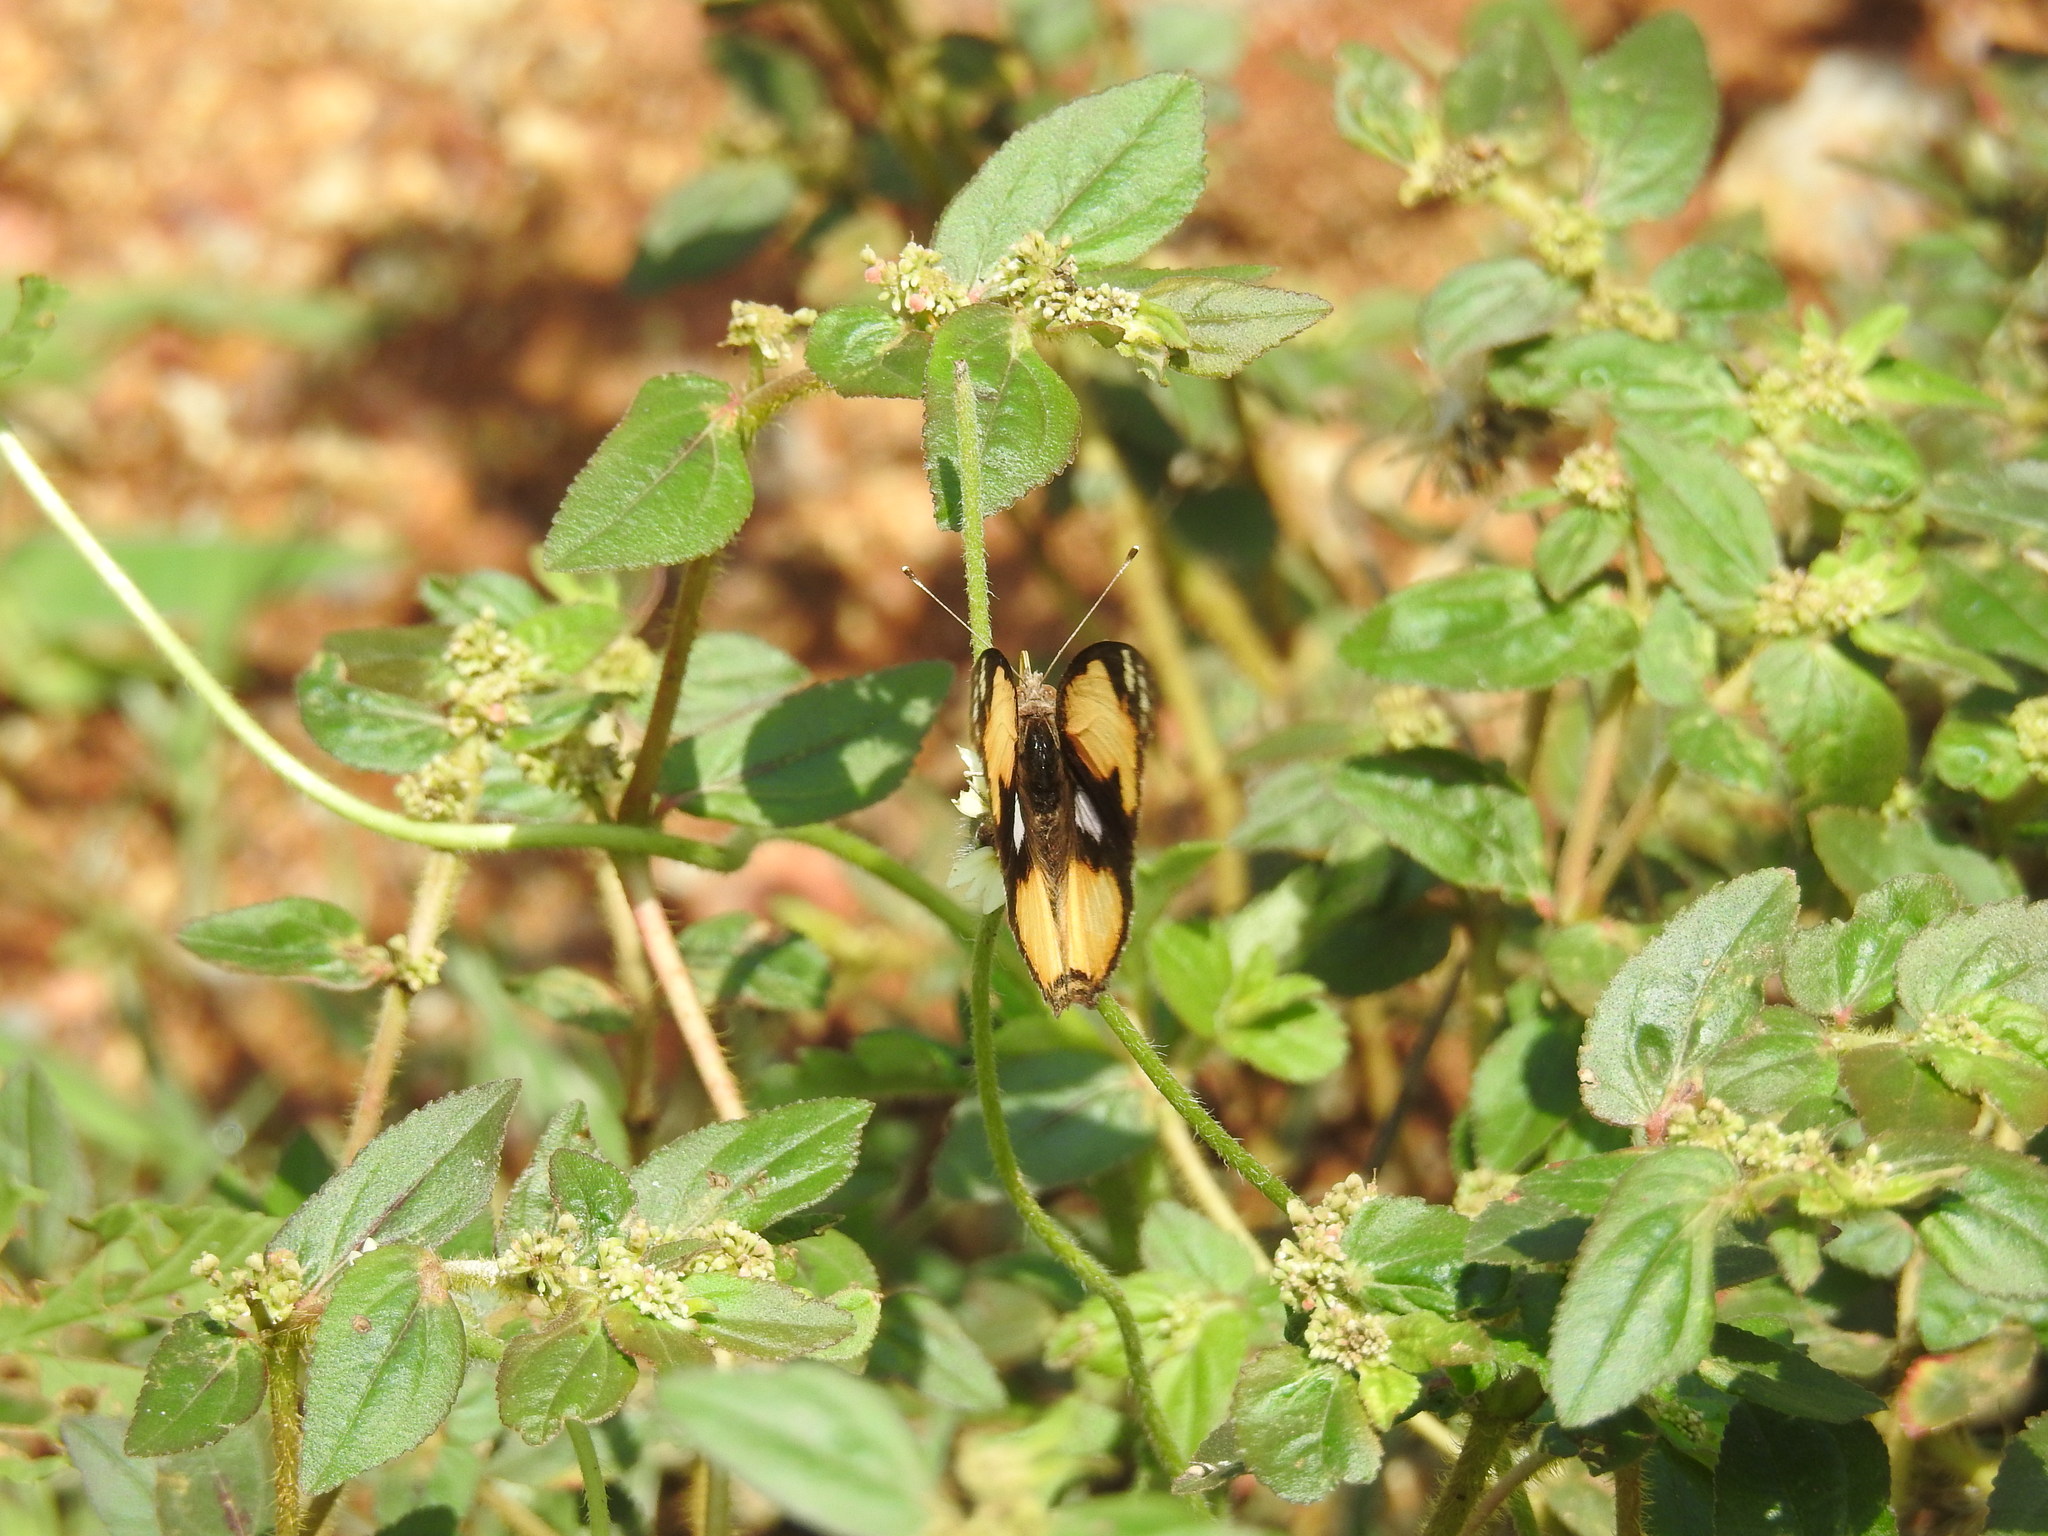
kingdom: Animalia
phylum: Arthropoda
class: Insecta
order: Lepidoptera
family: Nymphalidae
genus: Junonia
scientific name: Junonia hierta
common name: Yellow pansy
